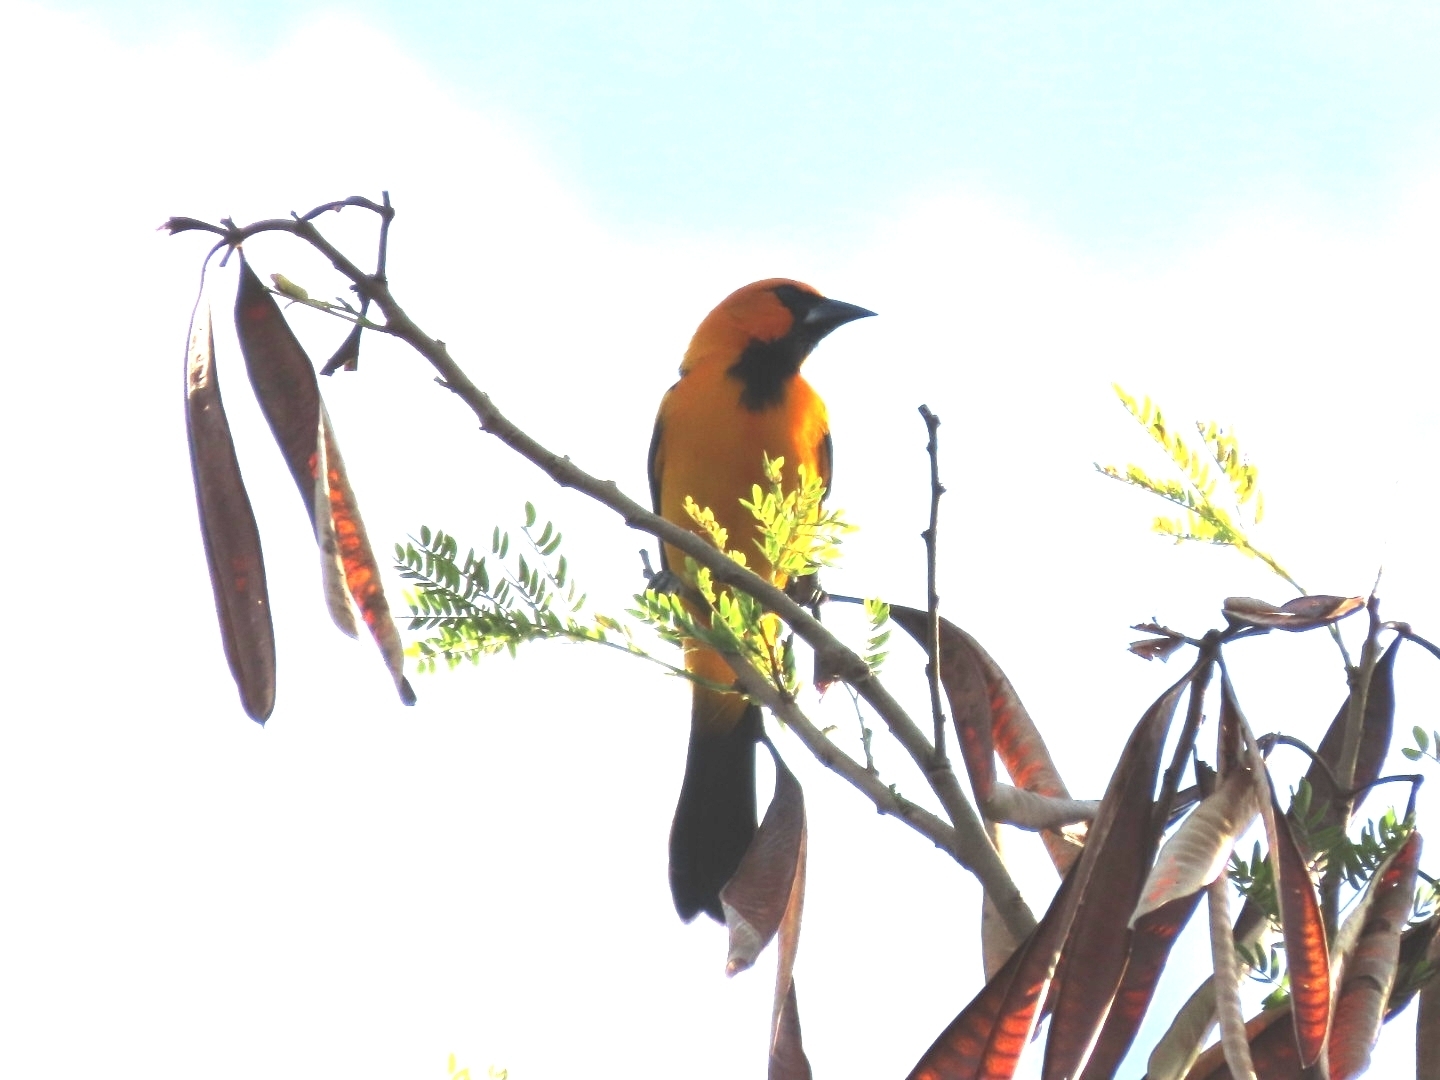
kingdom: Animalia
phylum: Chordata
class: Aves
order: Passeriformes
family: Icteridae
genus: Icterus
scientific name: Icterus gularis
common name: Altamira oriole
